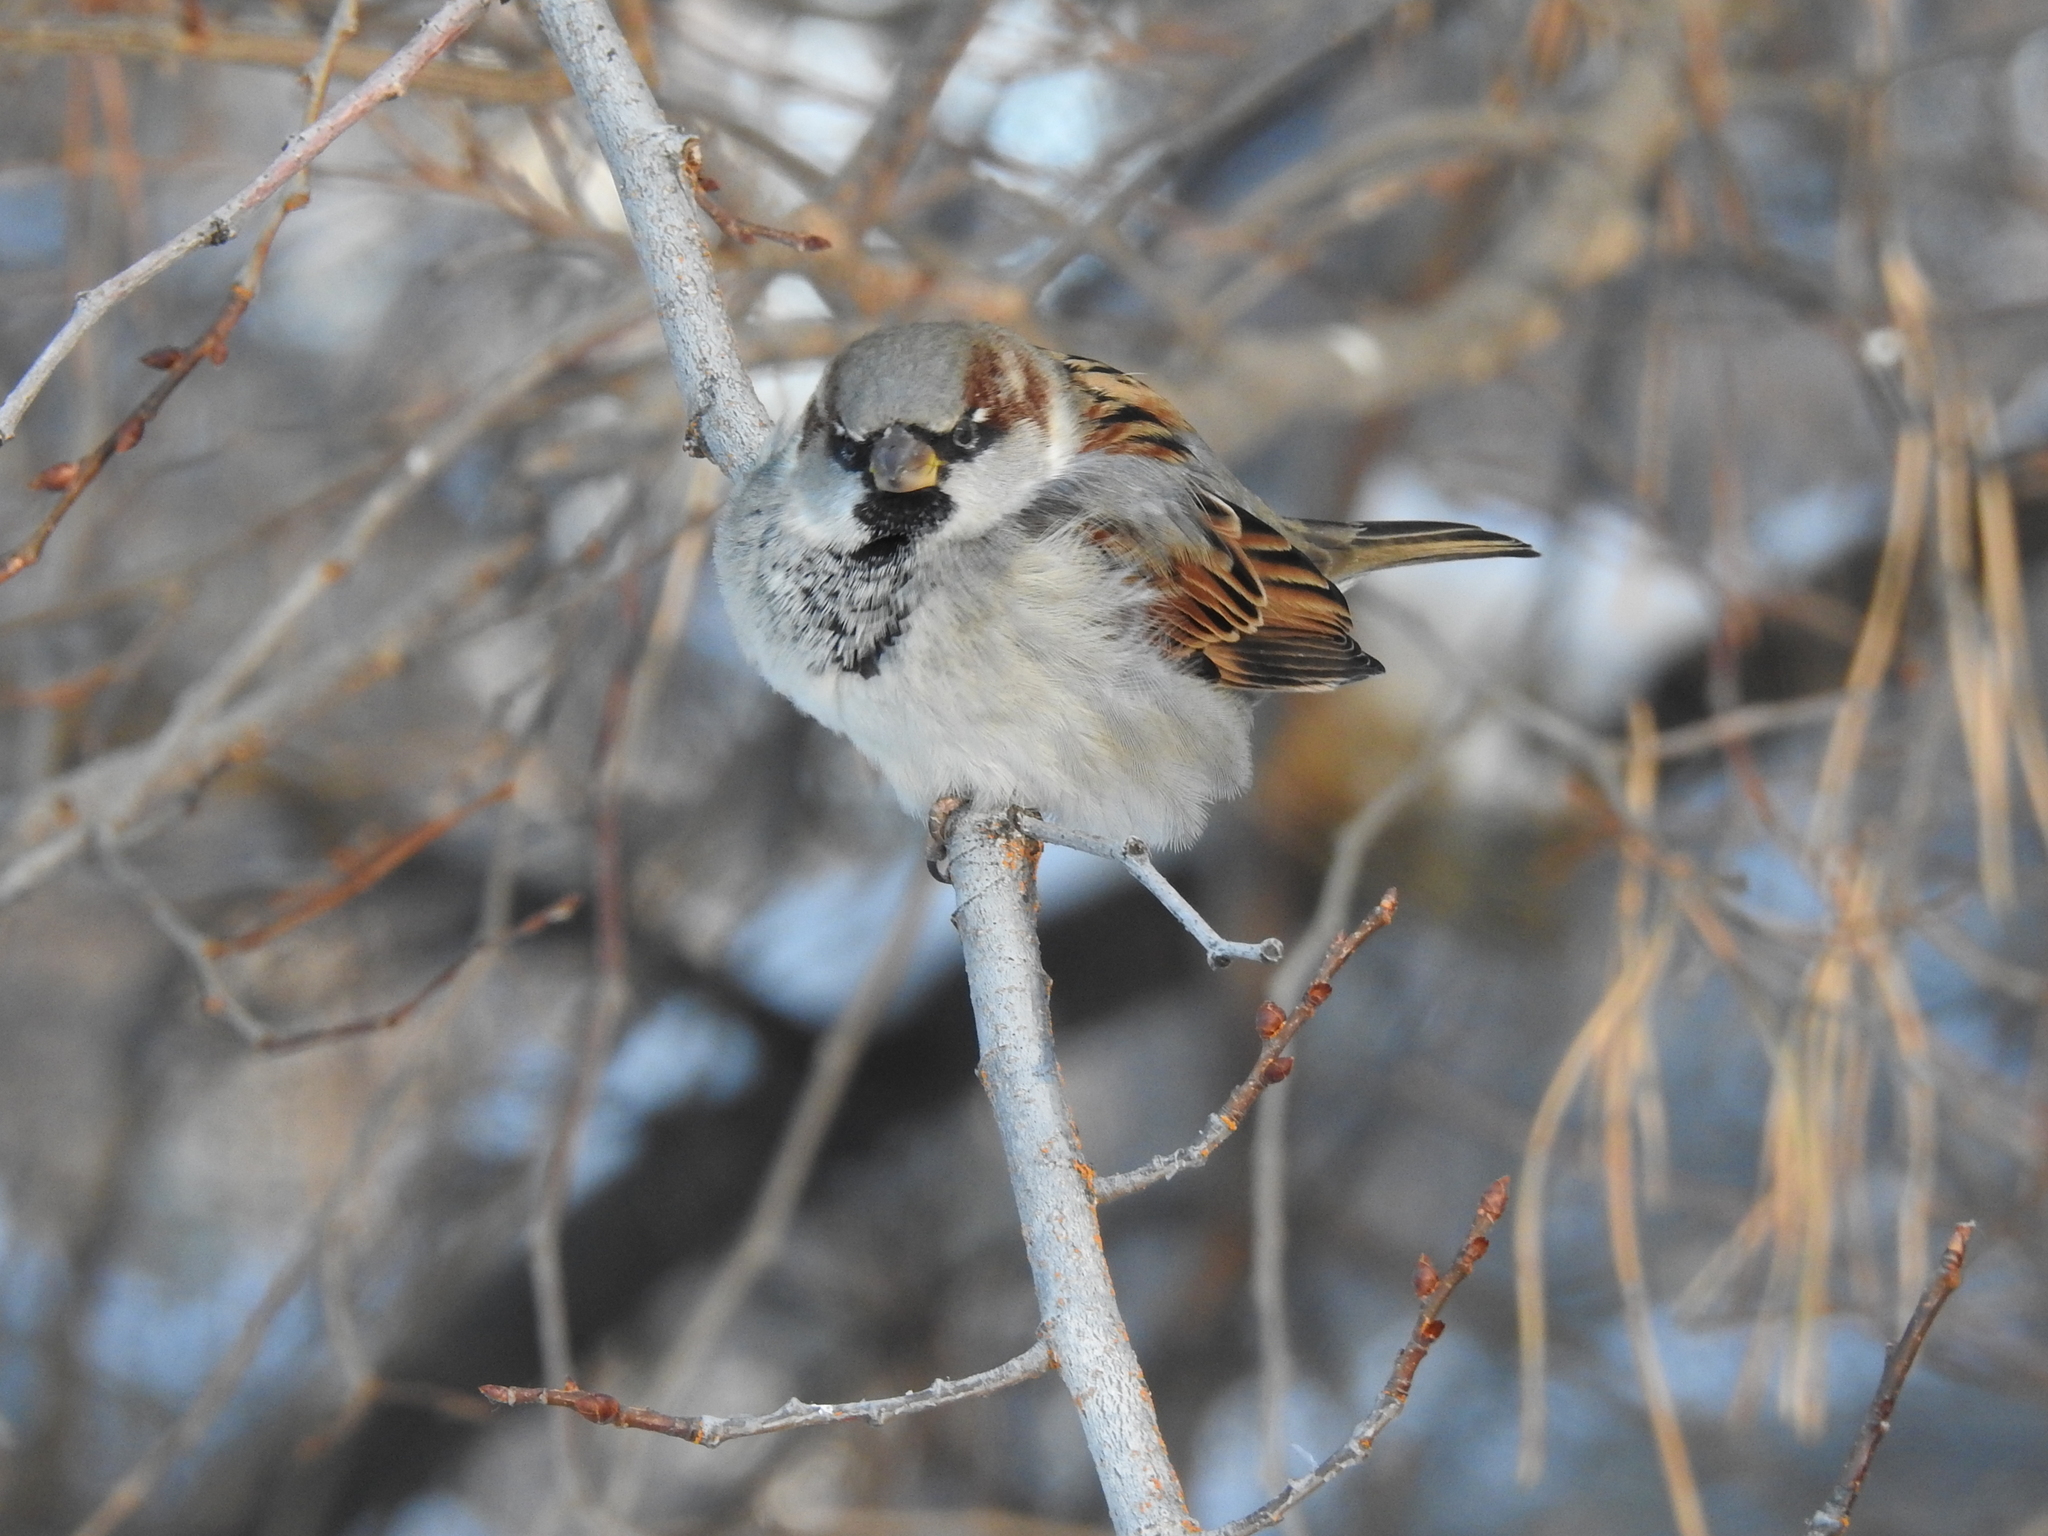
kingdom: Animalia
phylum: Chordata
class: Aves
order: Passeriformes
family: Passeridae
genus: Passer
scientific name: Passer domesticus
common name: House sparrow
